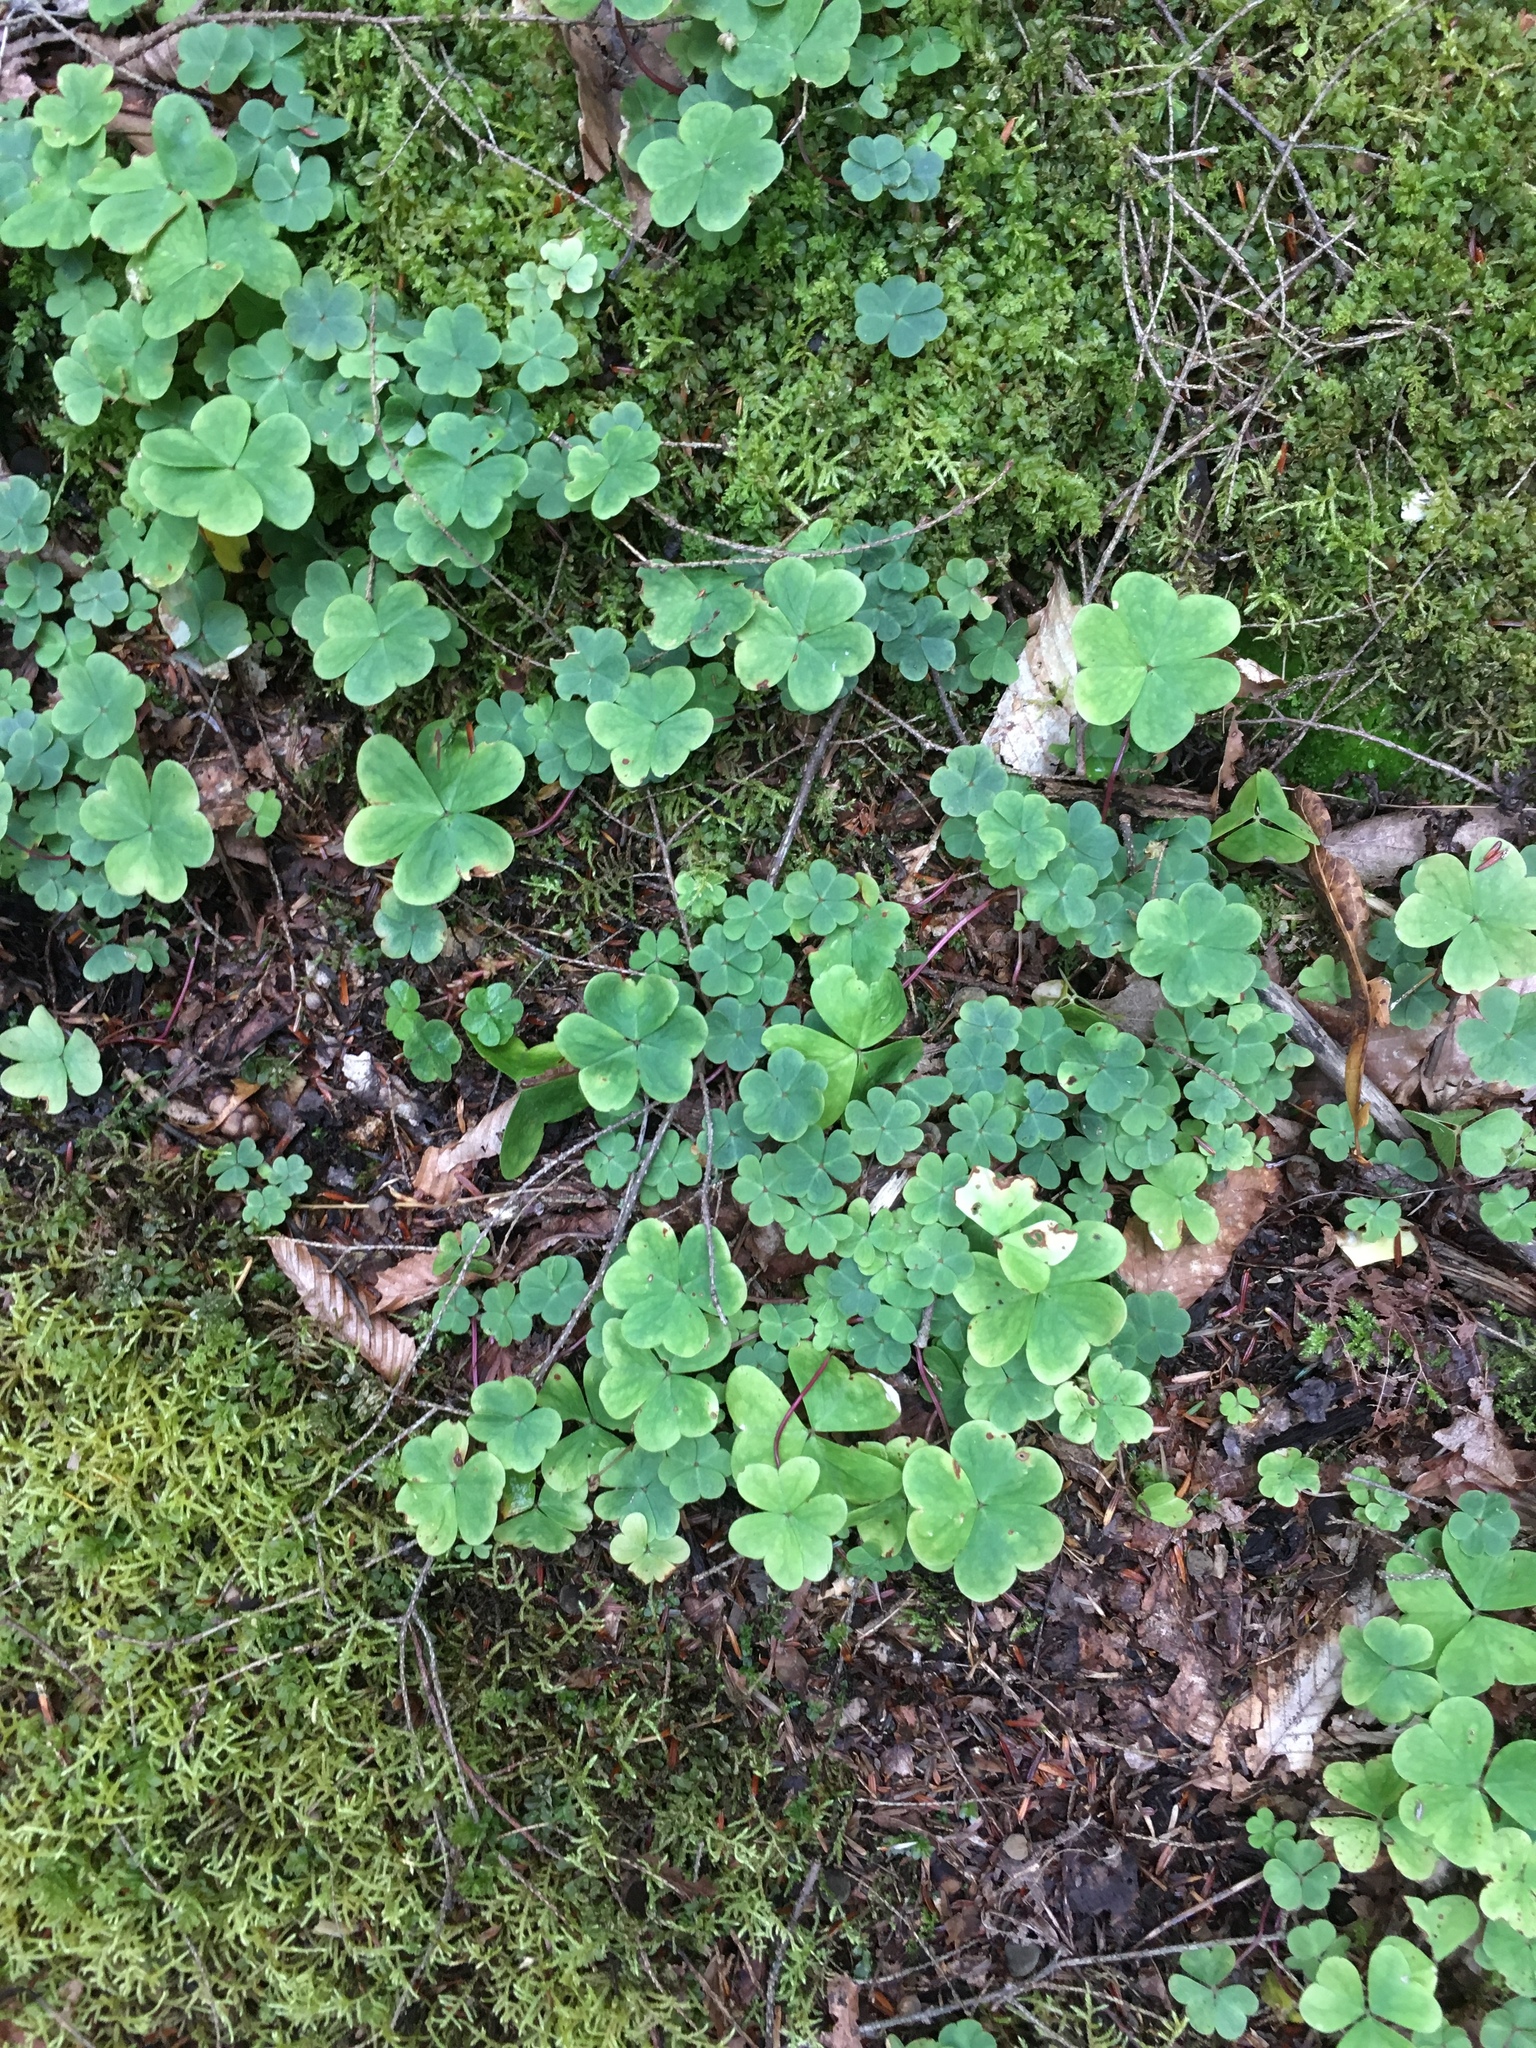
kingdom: Plantae
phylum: Tracheophyta
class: Magnoliopsida
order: Oxalidales
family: Oxalidaceae
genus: Oxalis
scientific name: Oxalis montana
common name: American wood-sorrel
